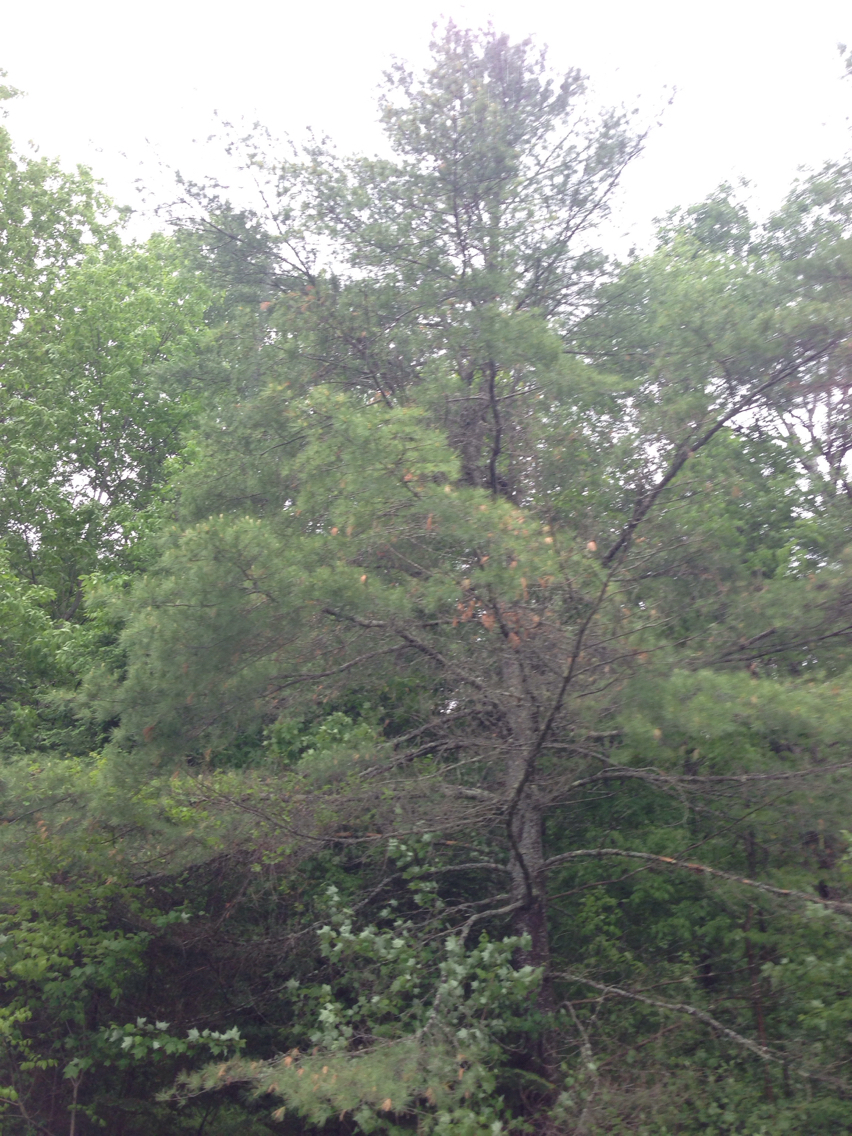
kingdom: Plantae
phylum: Tracheophyta
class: Pinopsida
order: Pinales
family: Pinaceae
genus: Pinus
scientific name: Pinus strobus
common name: Weymouth pine
